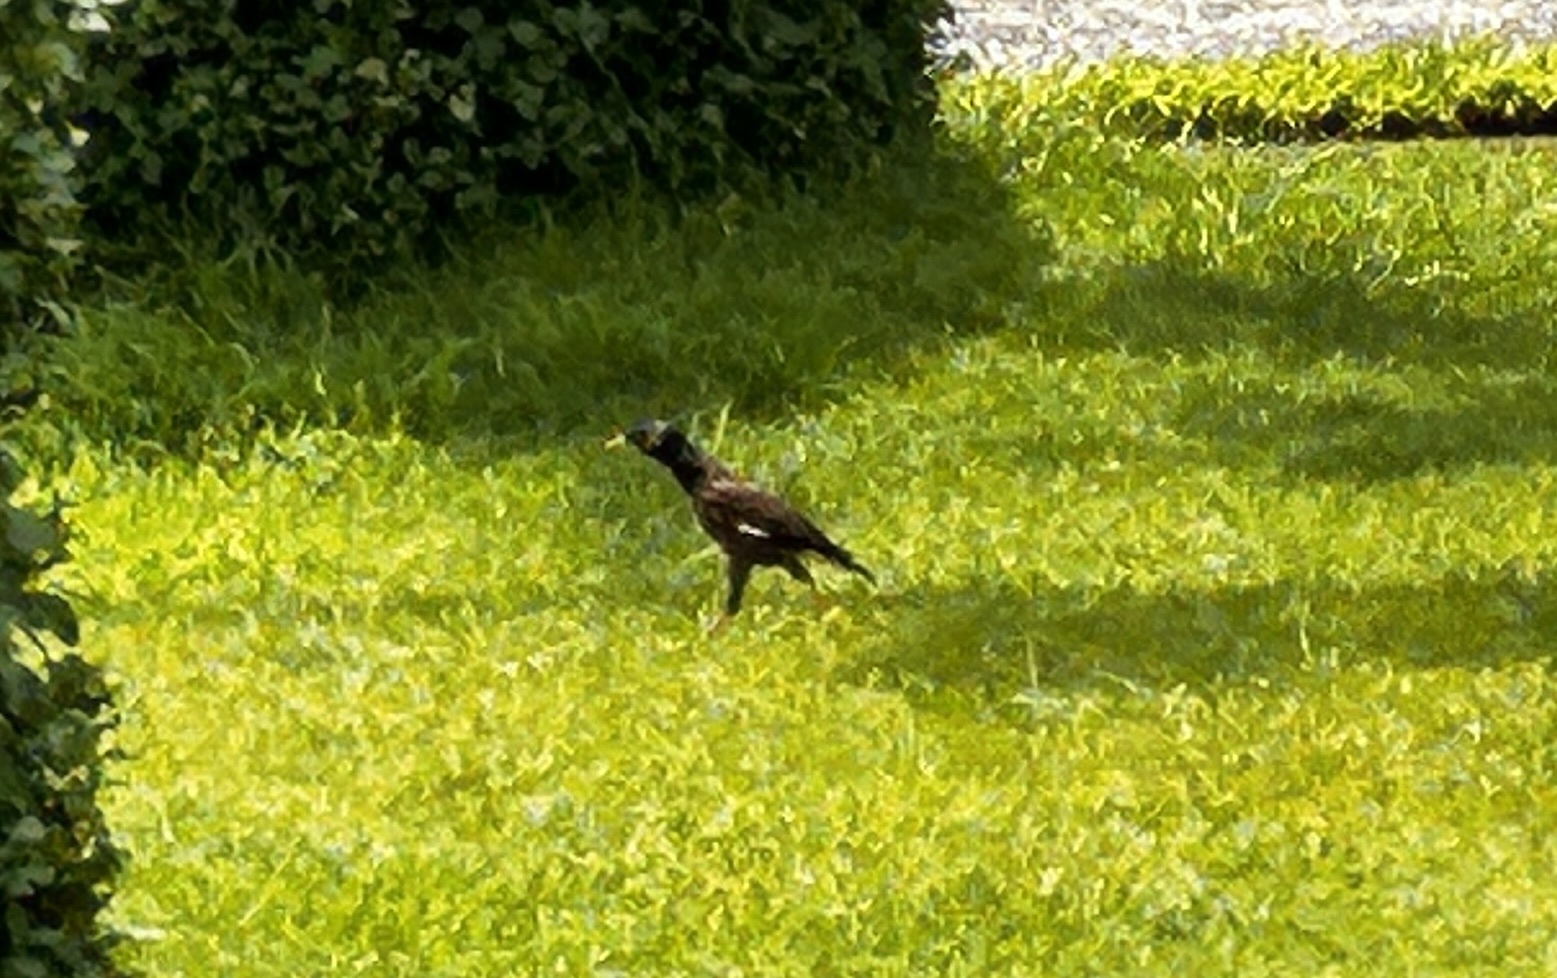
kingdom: Animalia
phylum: Chordata
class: Aves
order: Passeriformes
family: Sturnidae
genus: Acridotheres
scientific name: Acridotheres tristis
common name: Common myna
